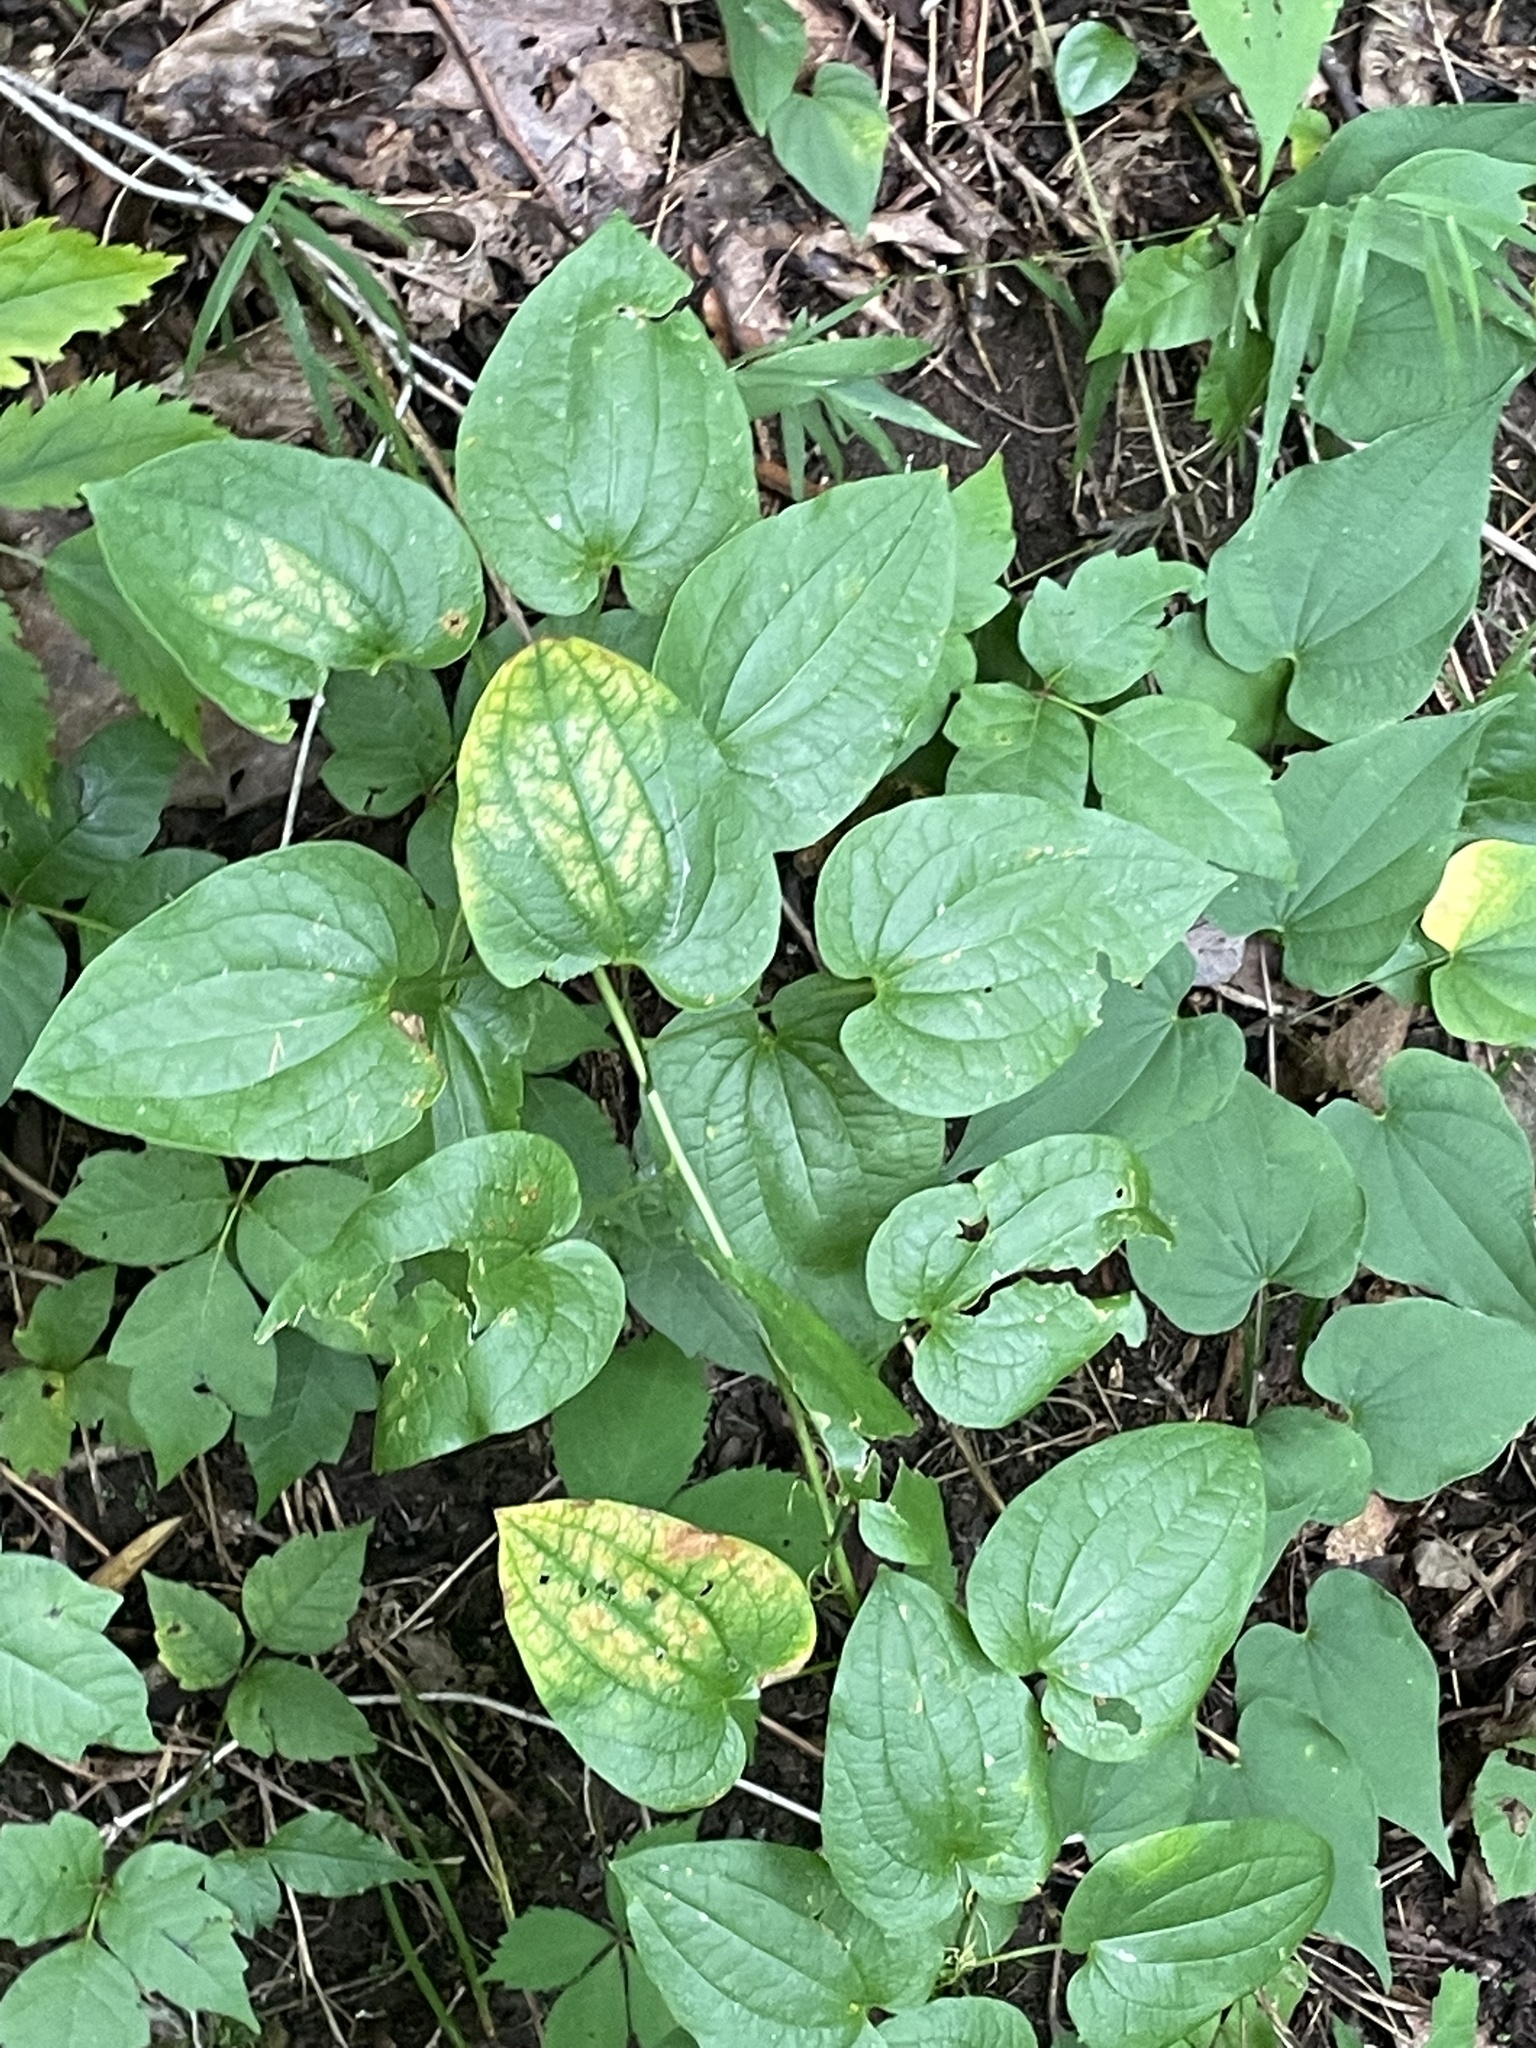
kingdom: Plantae
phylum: Tracheophyta
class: Liliopsida
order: Liliales
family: Smilacaceae
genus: Smilax
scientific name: Smilax herbacea
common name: Jacob's-ladder
